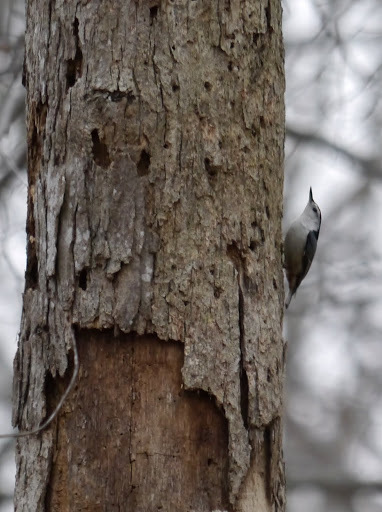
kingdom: Animalia
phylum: Chordata
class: Aves
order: Passeriformes
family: Sittidae
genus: Sitta
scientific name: Sitta carolinensis
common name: White-breasted nuthatch
